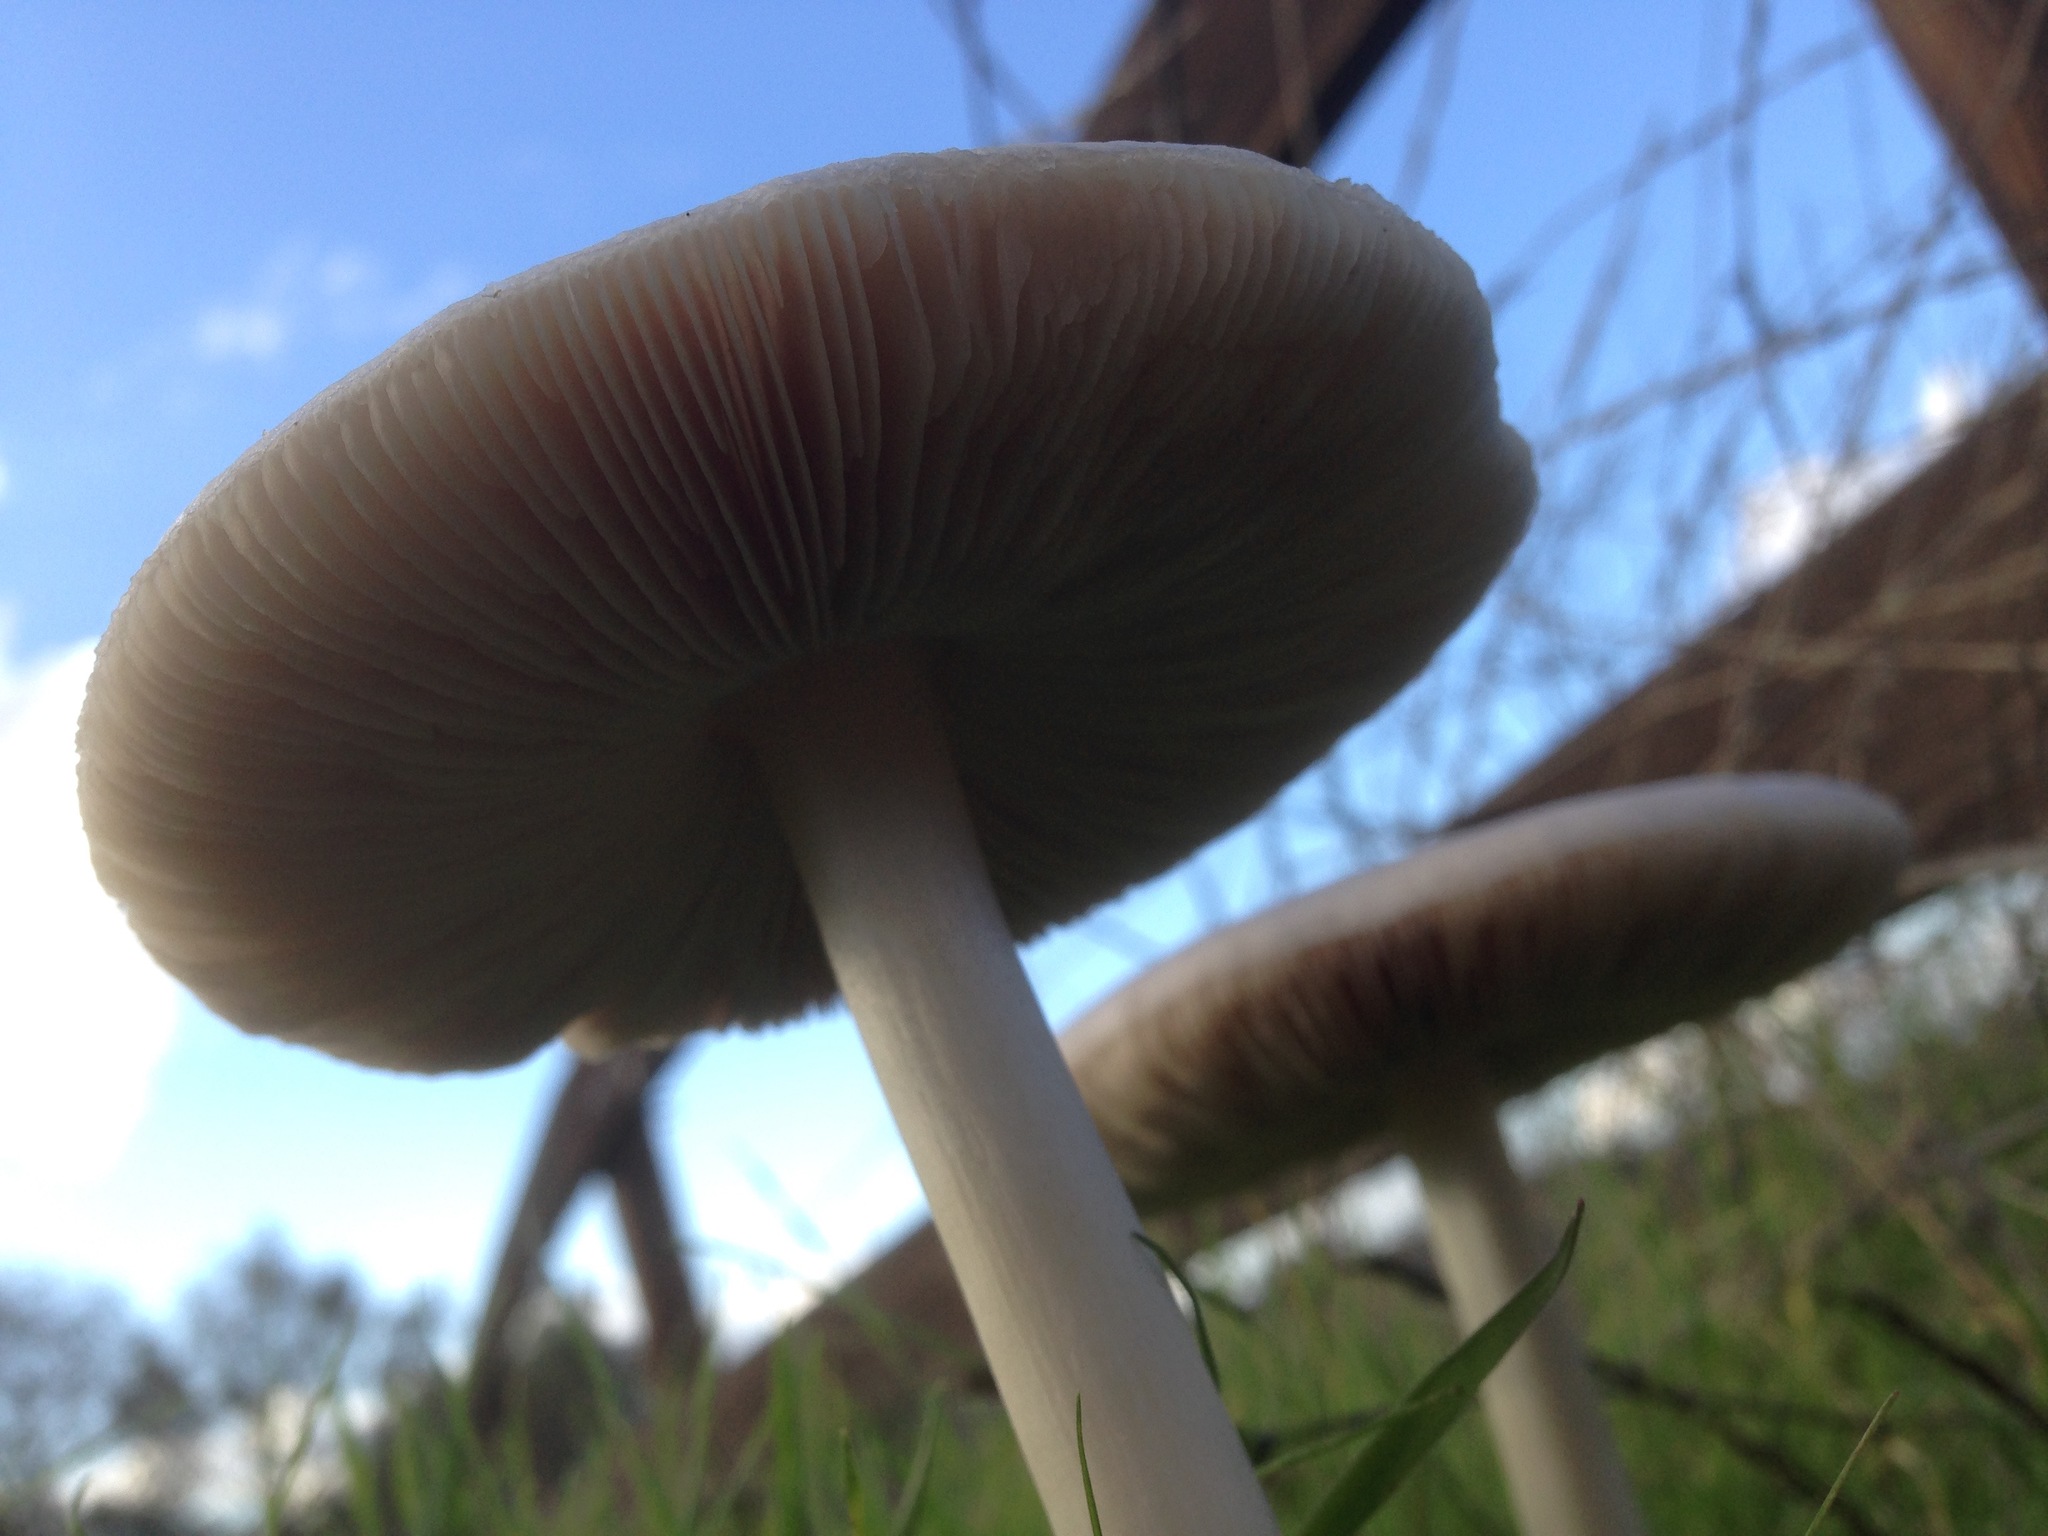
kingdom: Fungi
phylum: Basidiomycota
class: Agaricomycetes
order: Agaricales
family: Pluteaceae
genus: Volvopluteus
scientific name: Volvopluteus gloiocephalus
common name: Stubble rosegill
